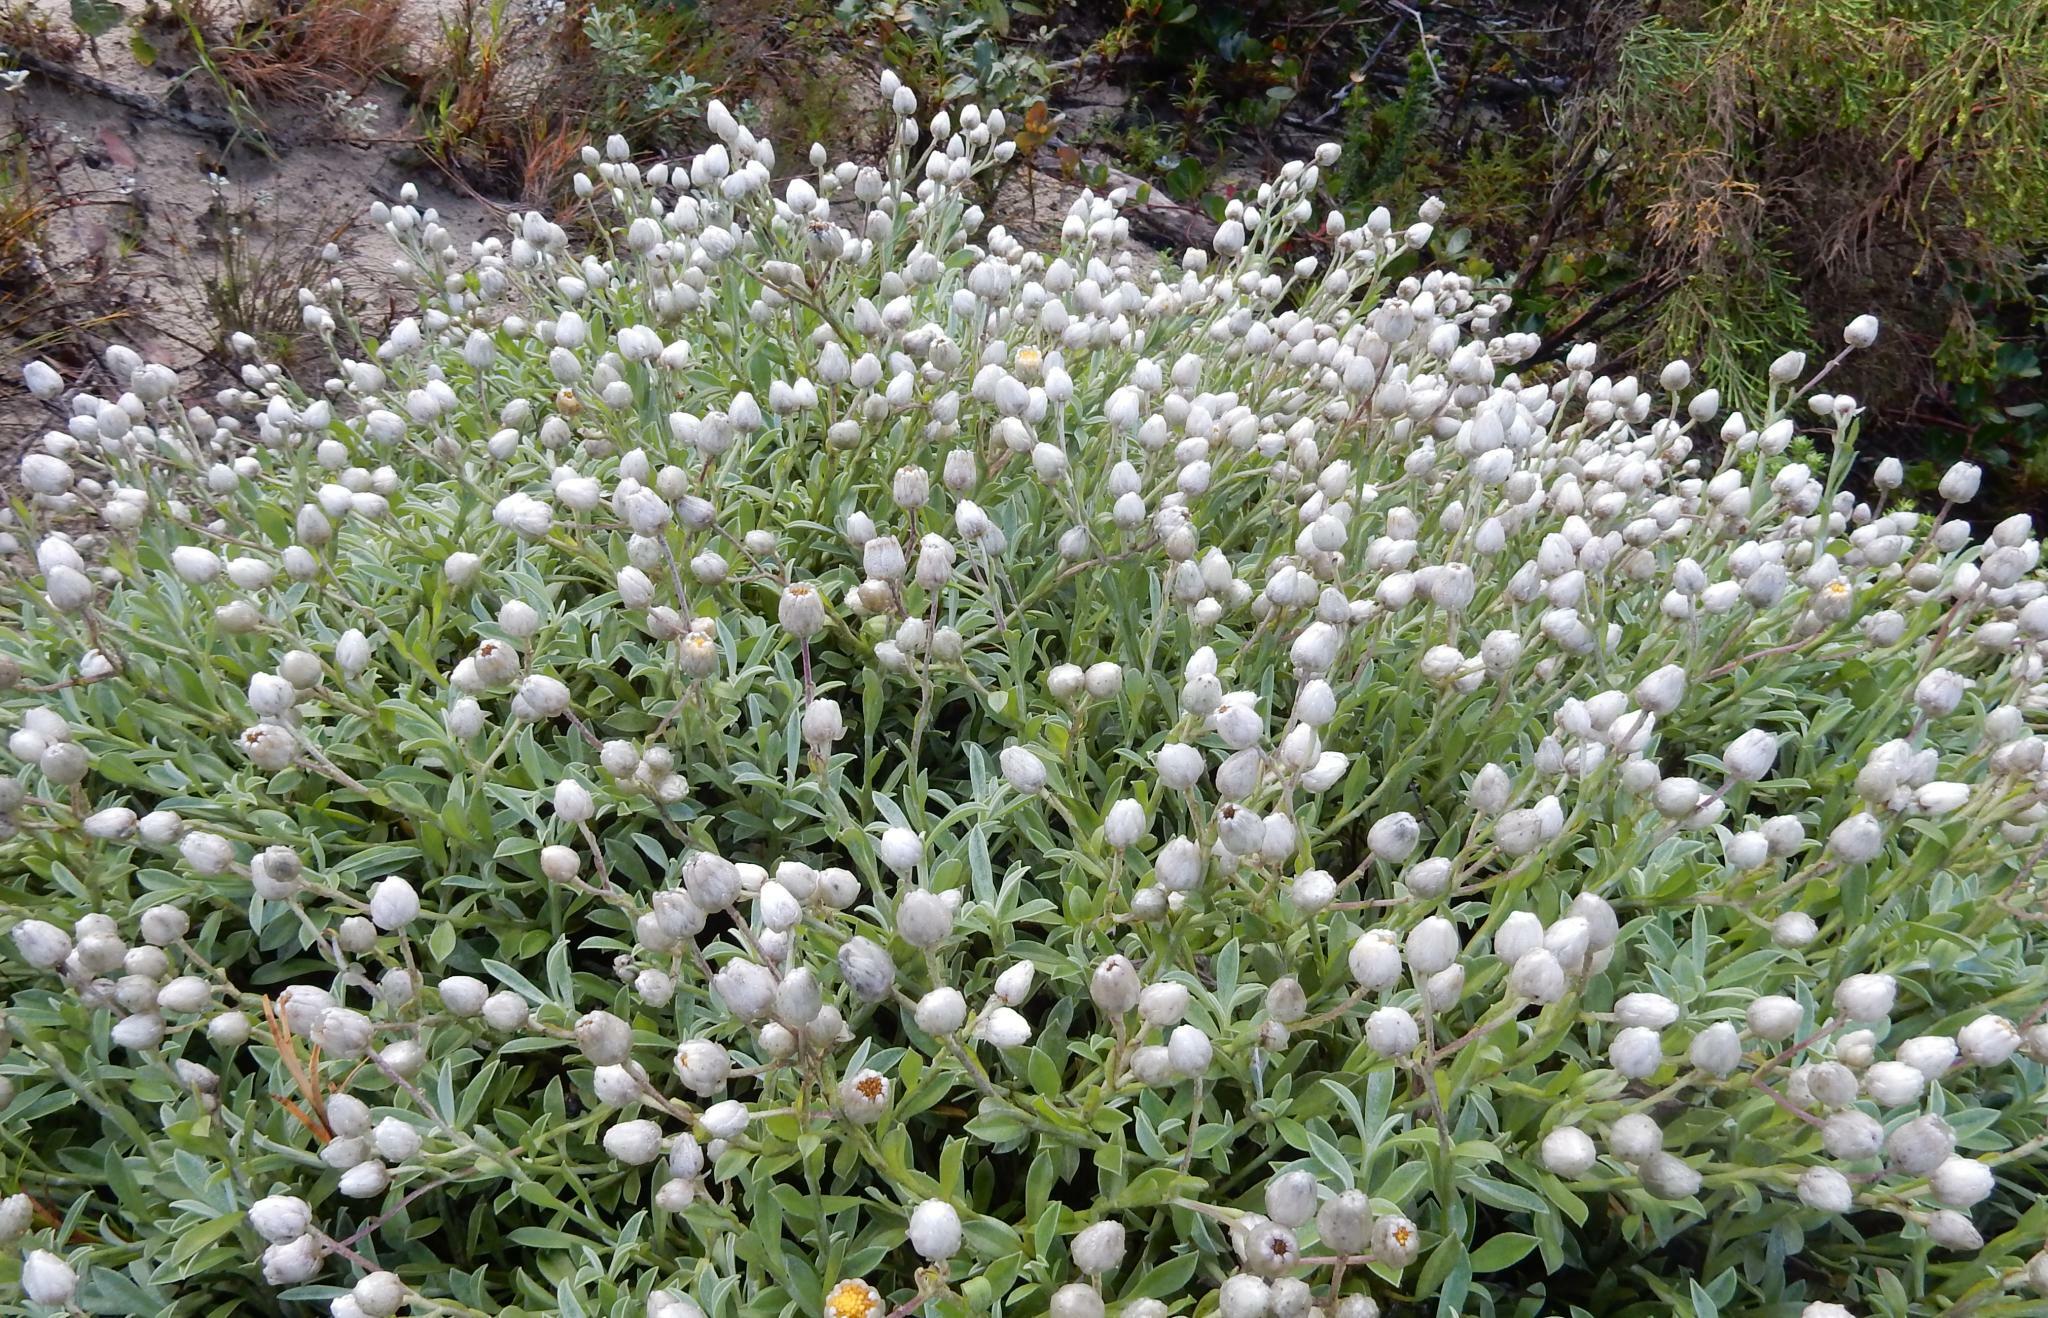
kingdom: Plantae
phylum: Tracheophyta
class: Magnoliopsida
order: Asterales
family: Asteraceae
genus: Achyranthemum
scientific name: Achyranthemum argenteum
